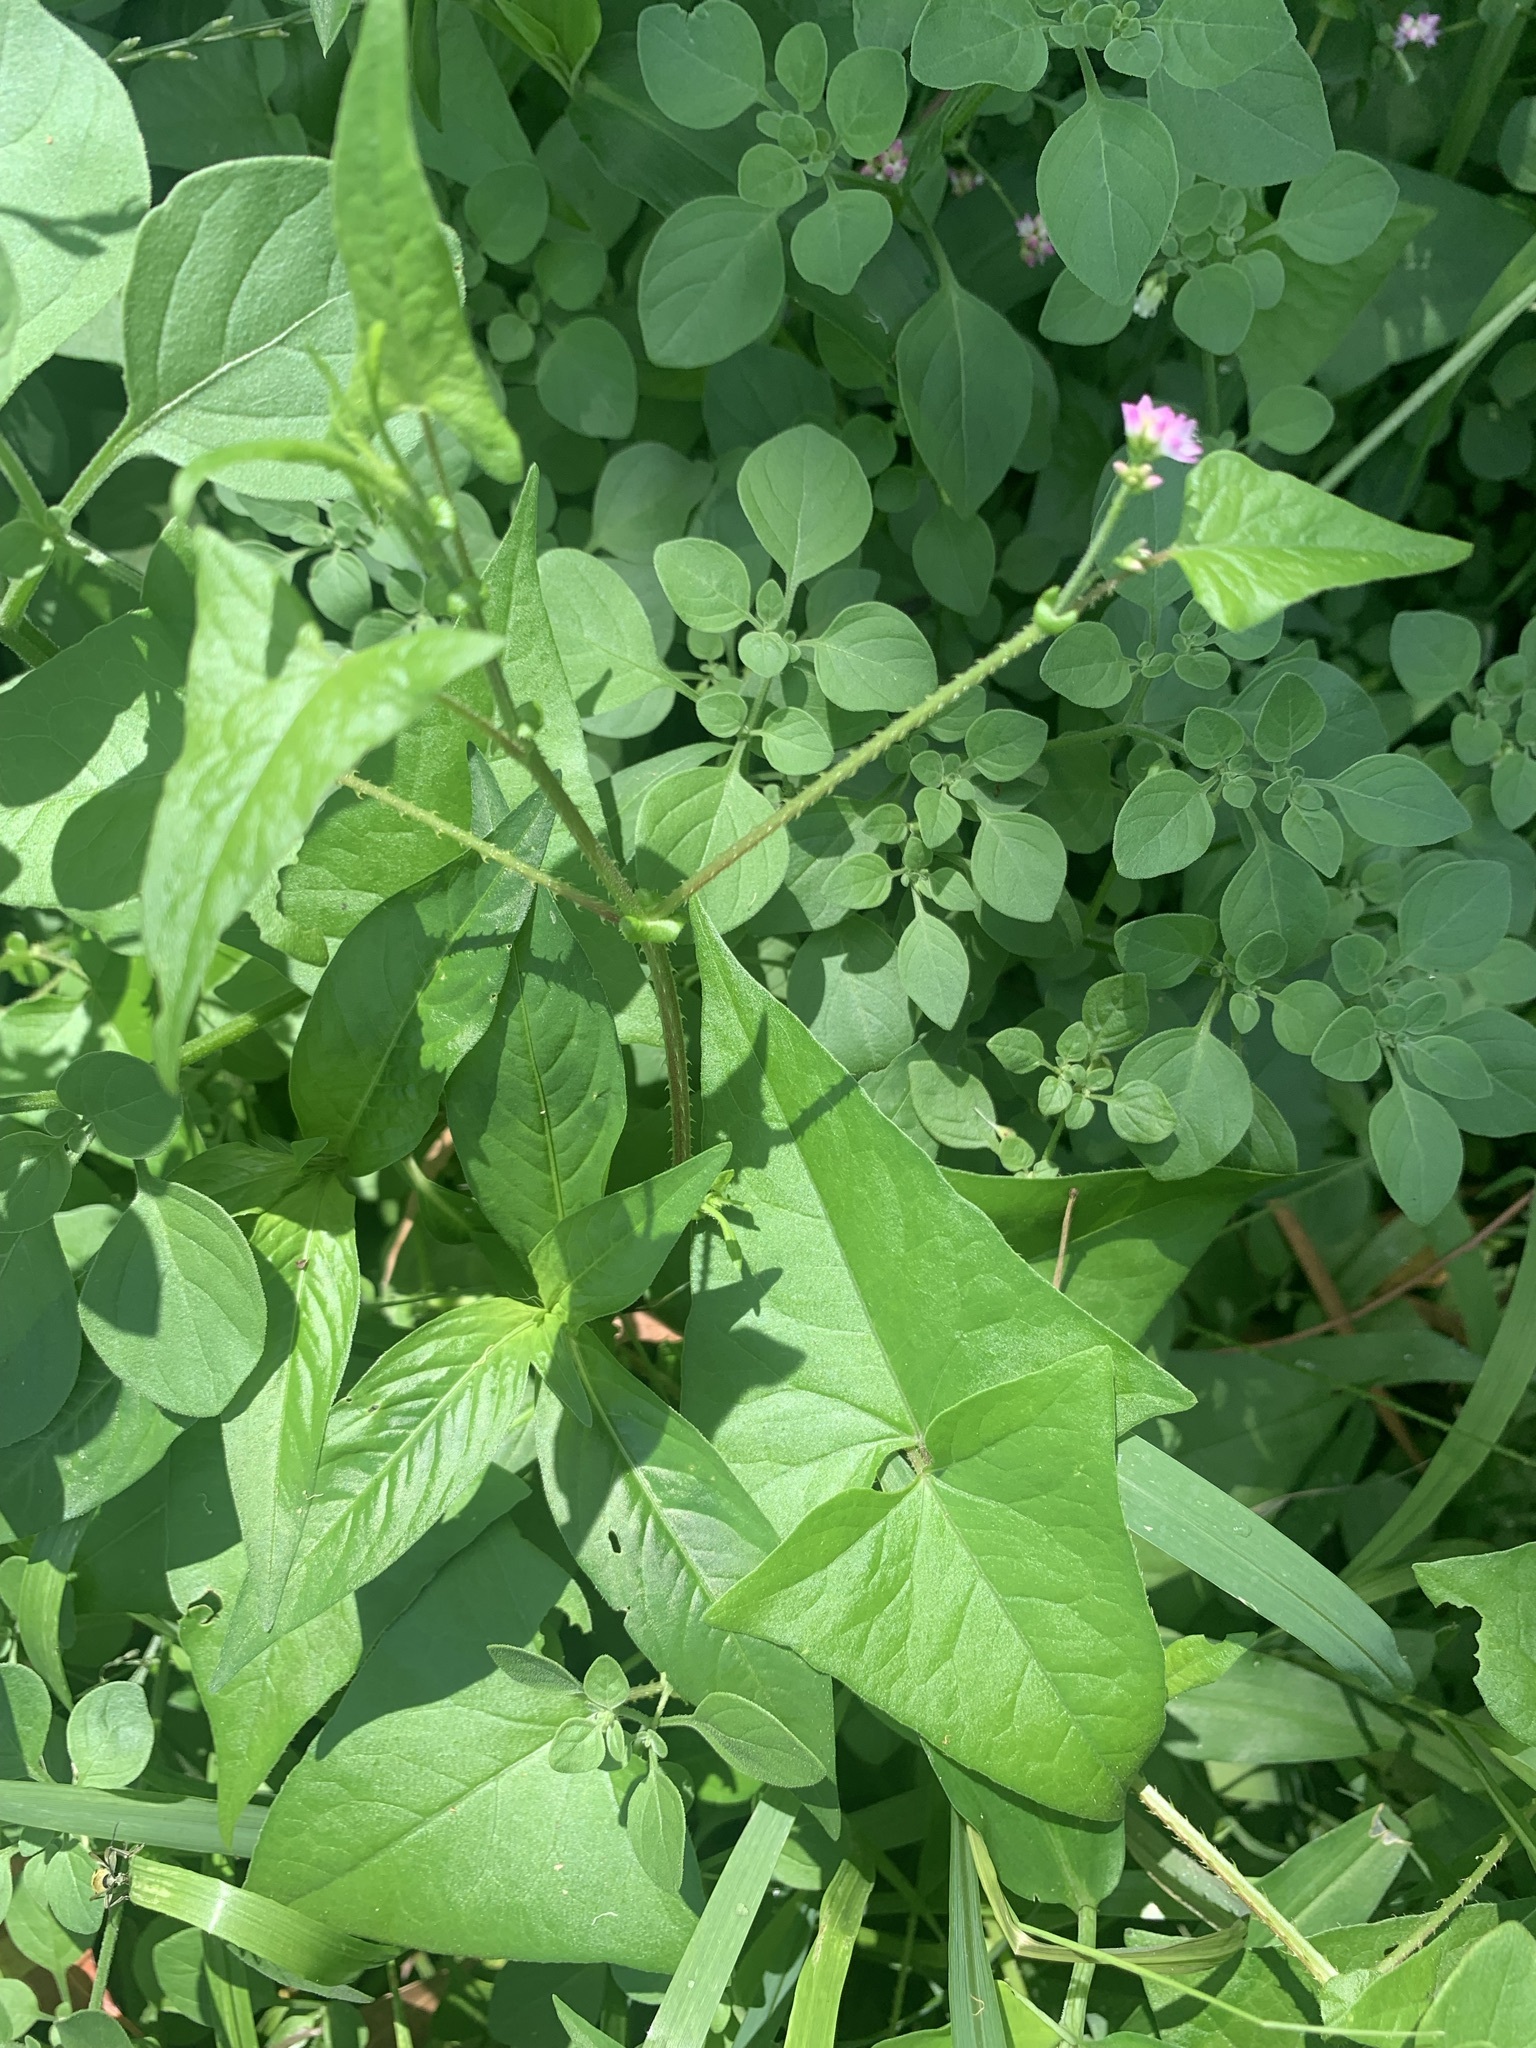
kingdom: Plantae
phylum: Tracheophyta
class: Magnoliopsida
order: Caryophyllales
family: Polygonaceae
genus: Persicaria
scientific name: Persicaria senticosa
